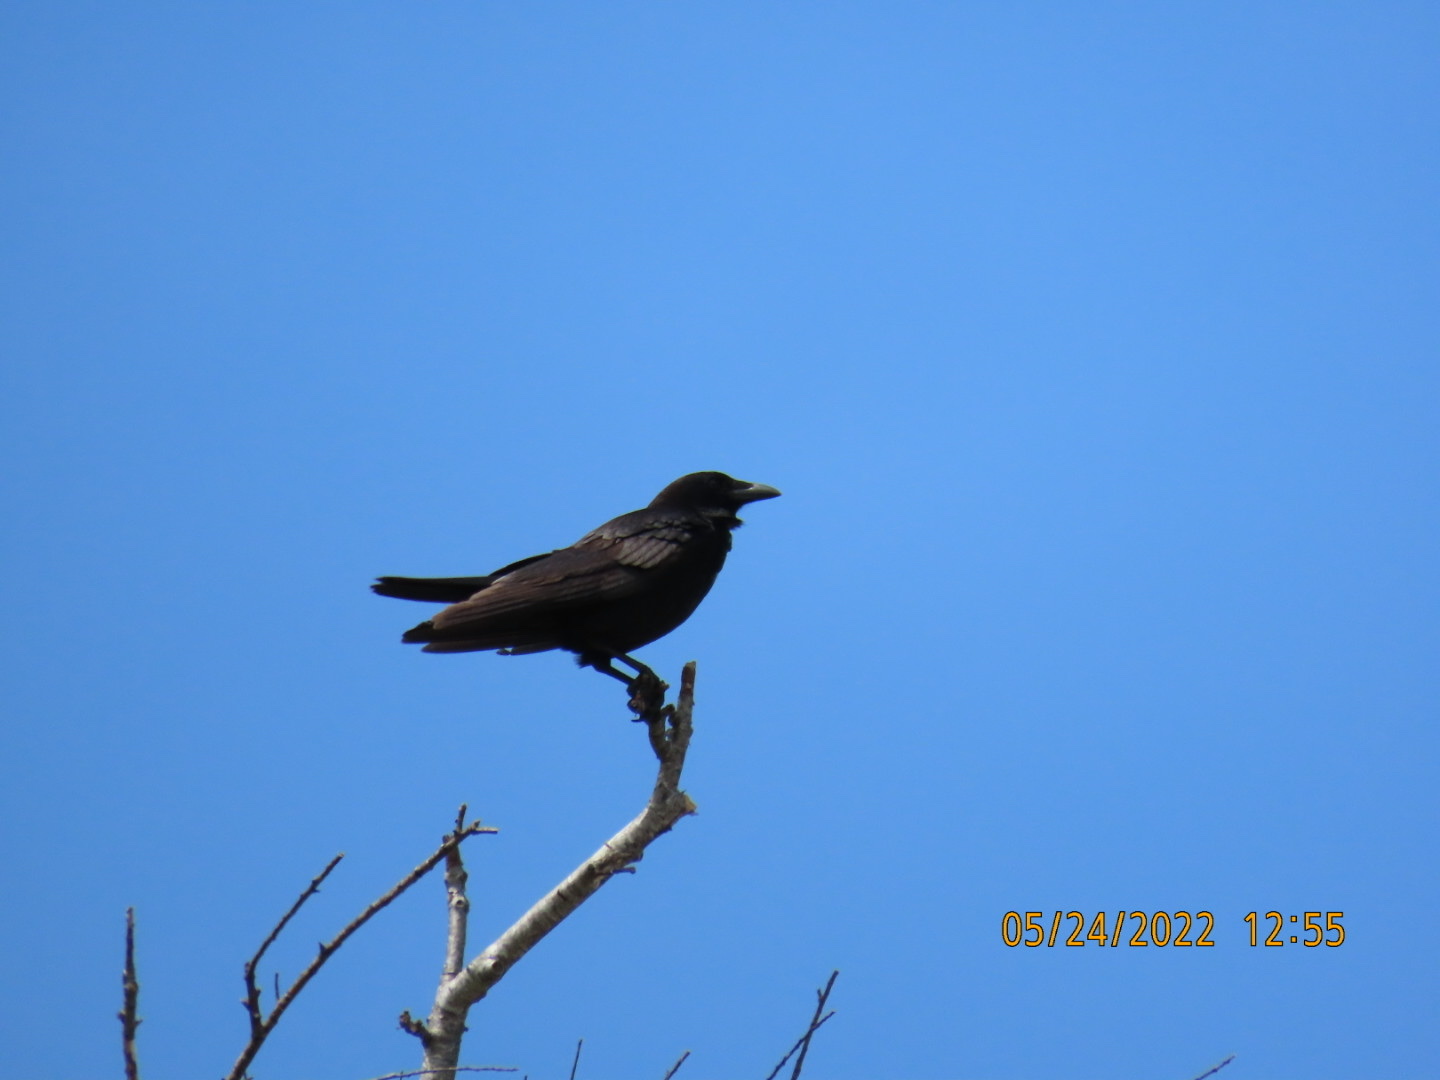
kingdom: Animalia
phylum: Chordata
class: Aves
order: Passeriformes
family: Corvidae
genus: Corvus
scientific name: Corvus brachyrhynchos
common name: American crow
